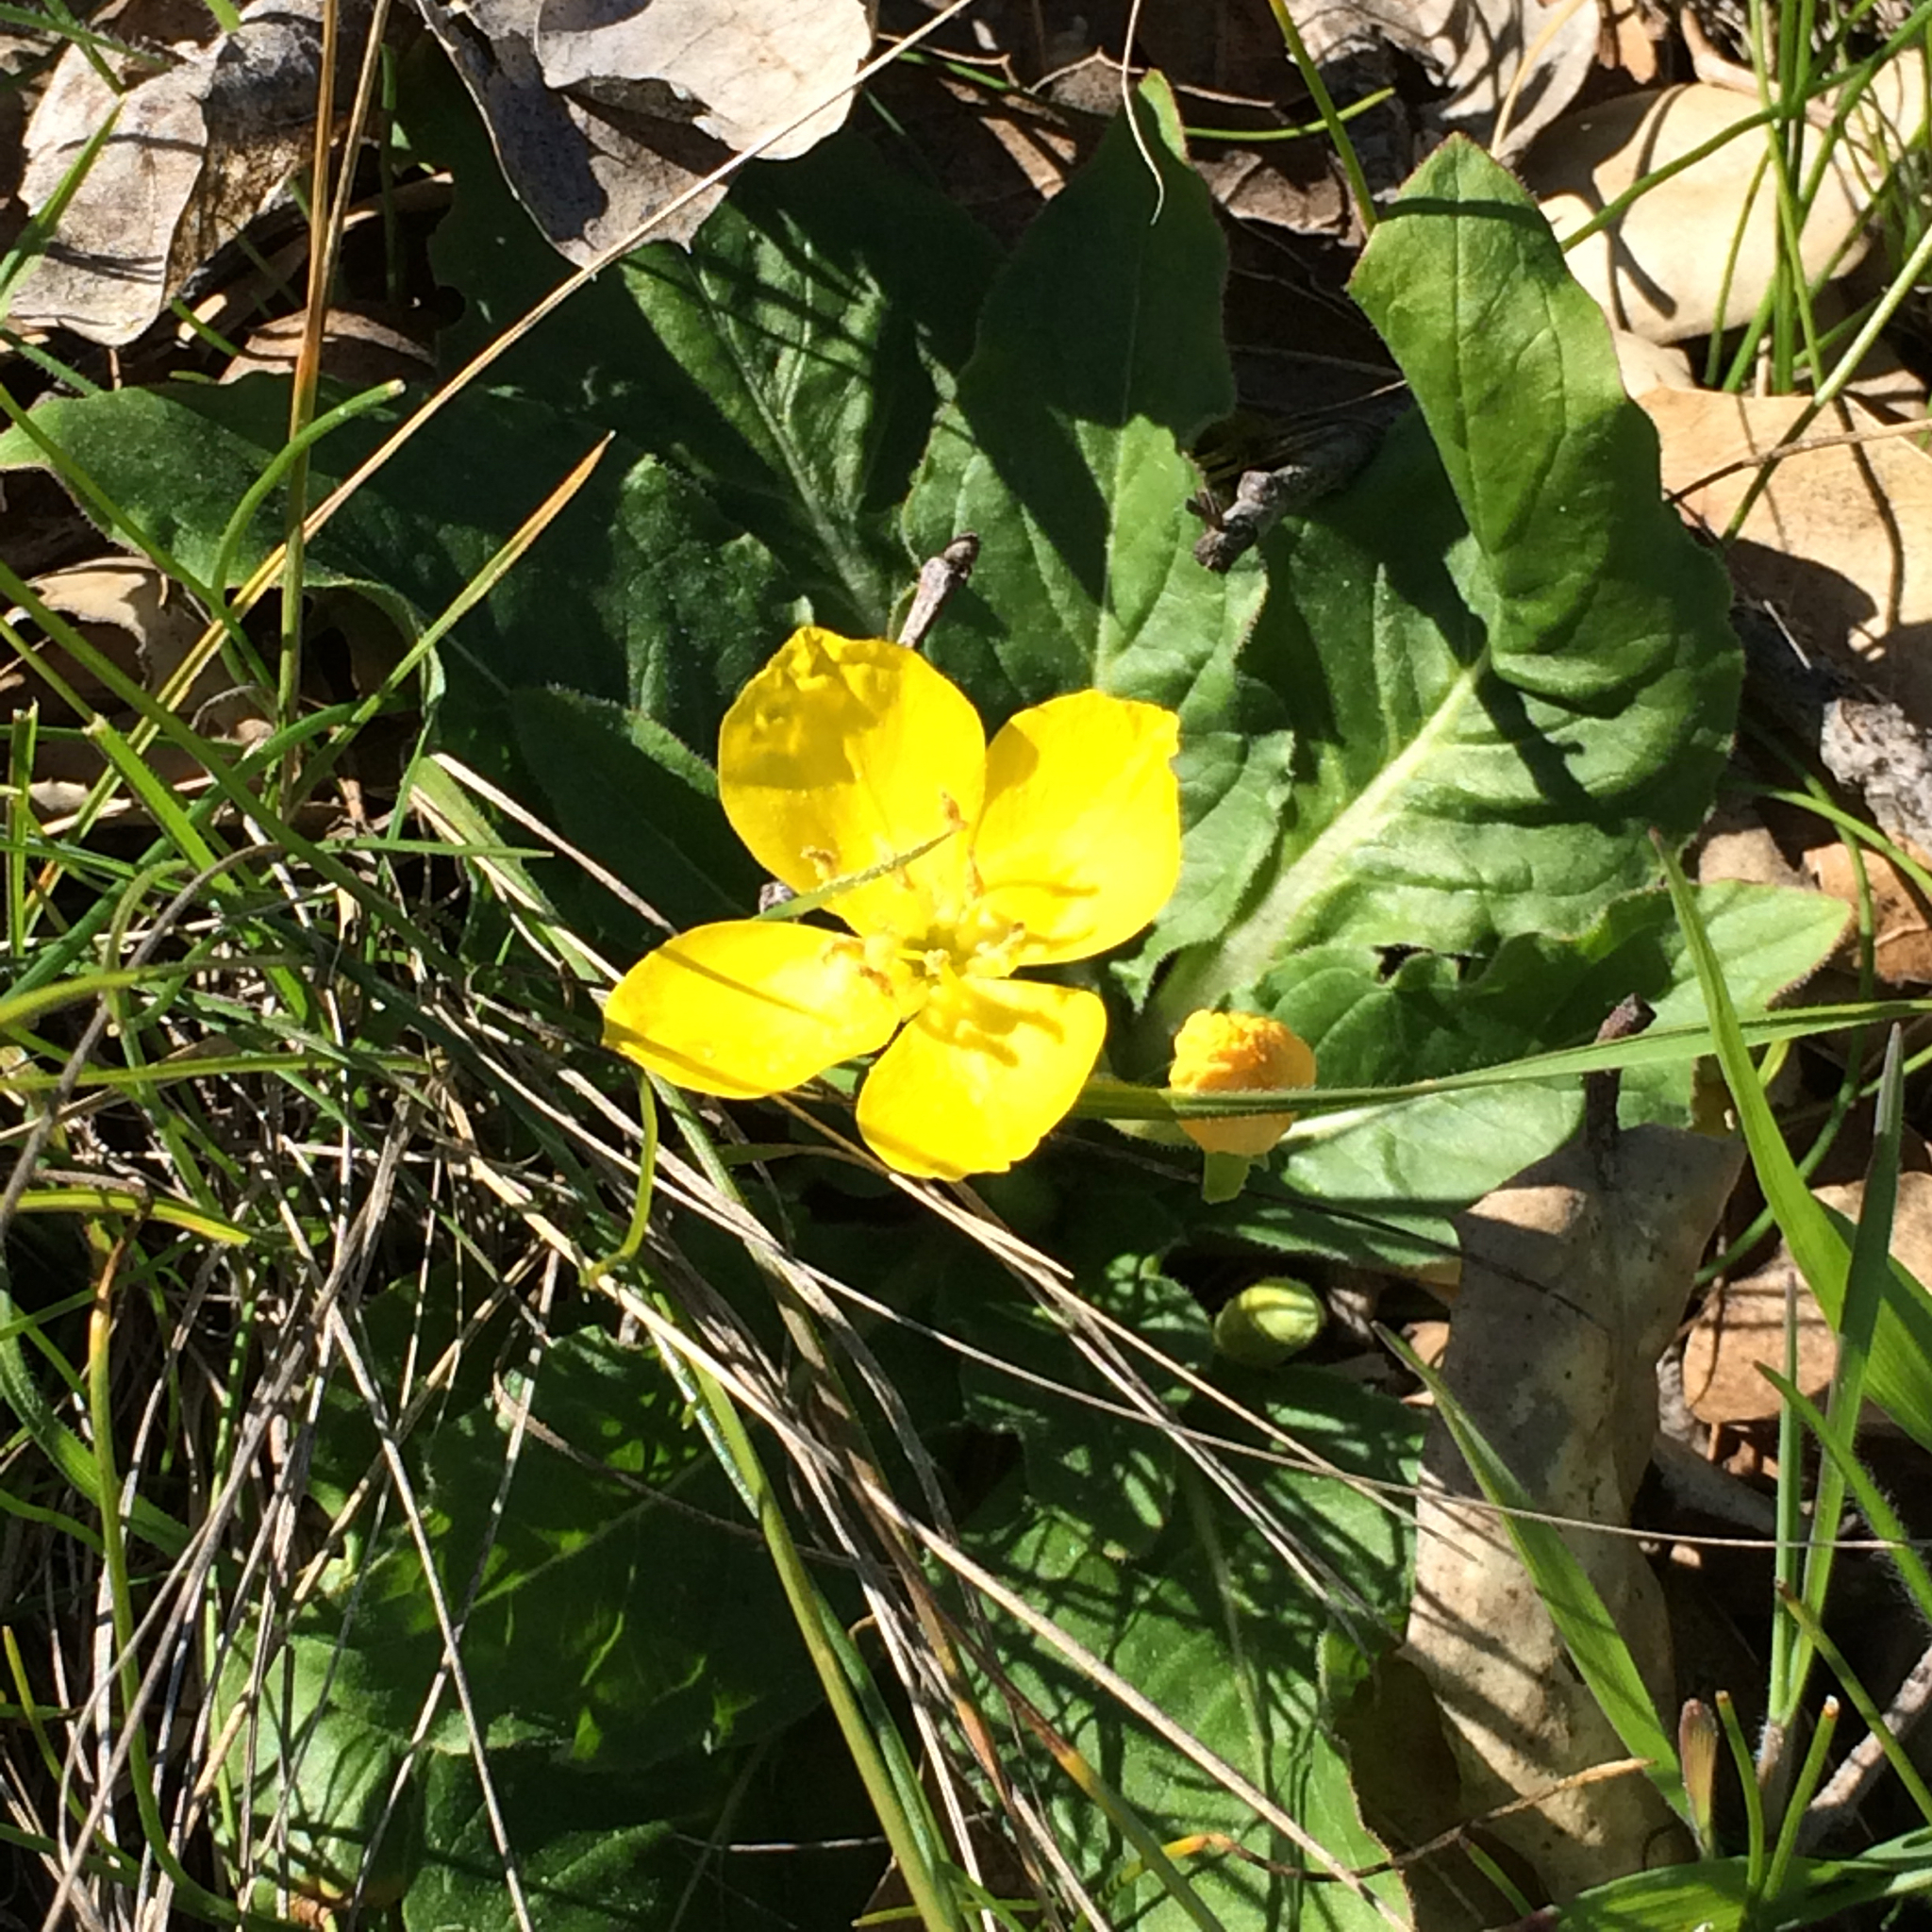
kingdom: Plantae
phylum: Tracheophyta
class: Magnoliopsida
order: Myrtales
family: Onagraceae
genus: Taraxia
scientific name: Taraxia ovata
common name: Goldeneggs
